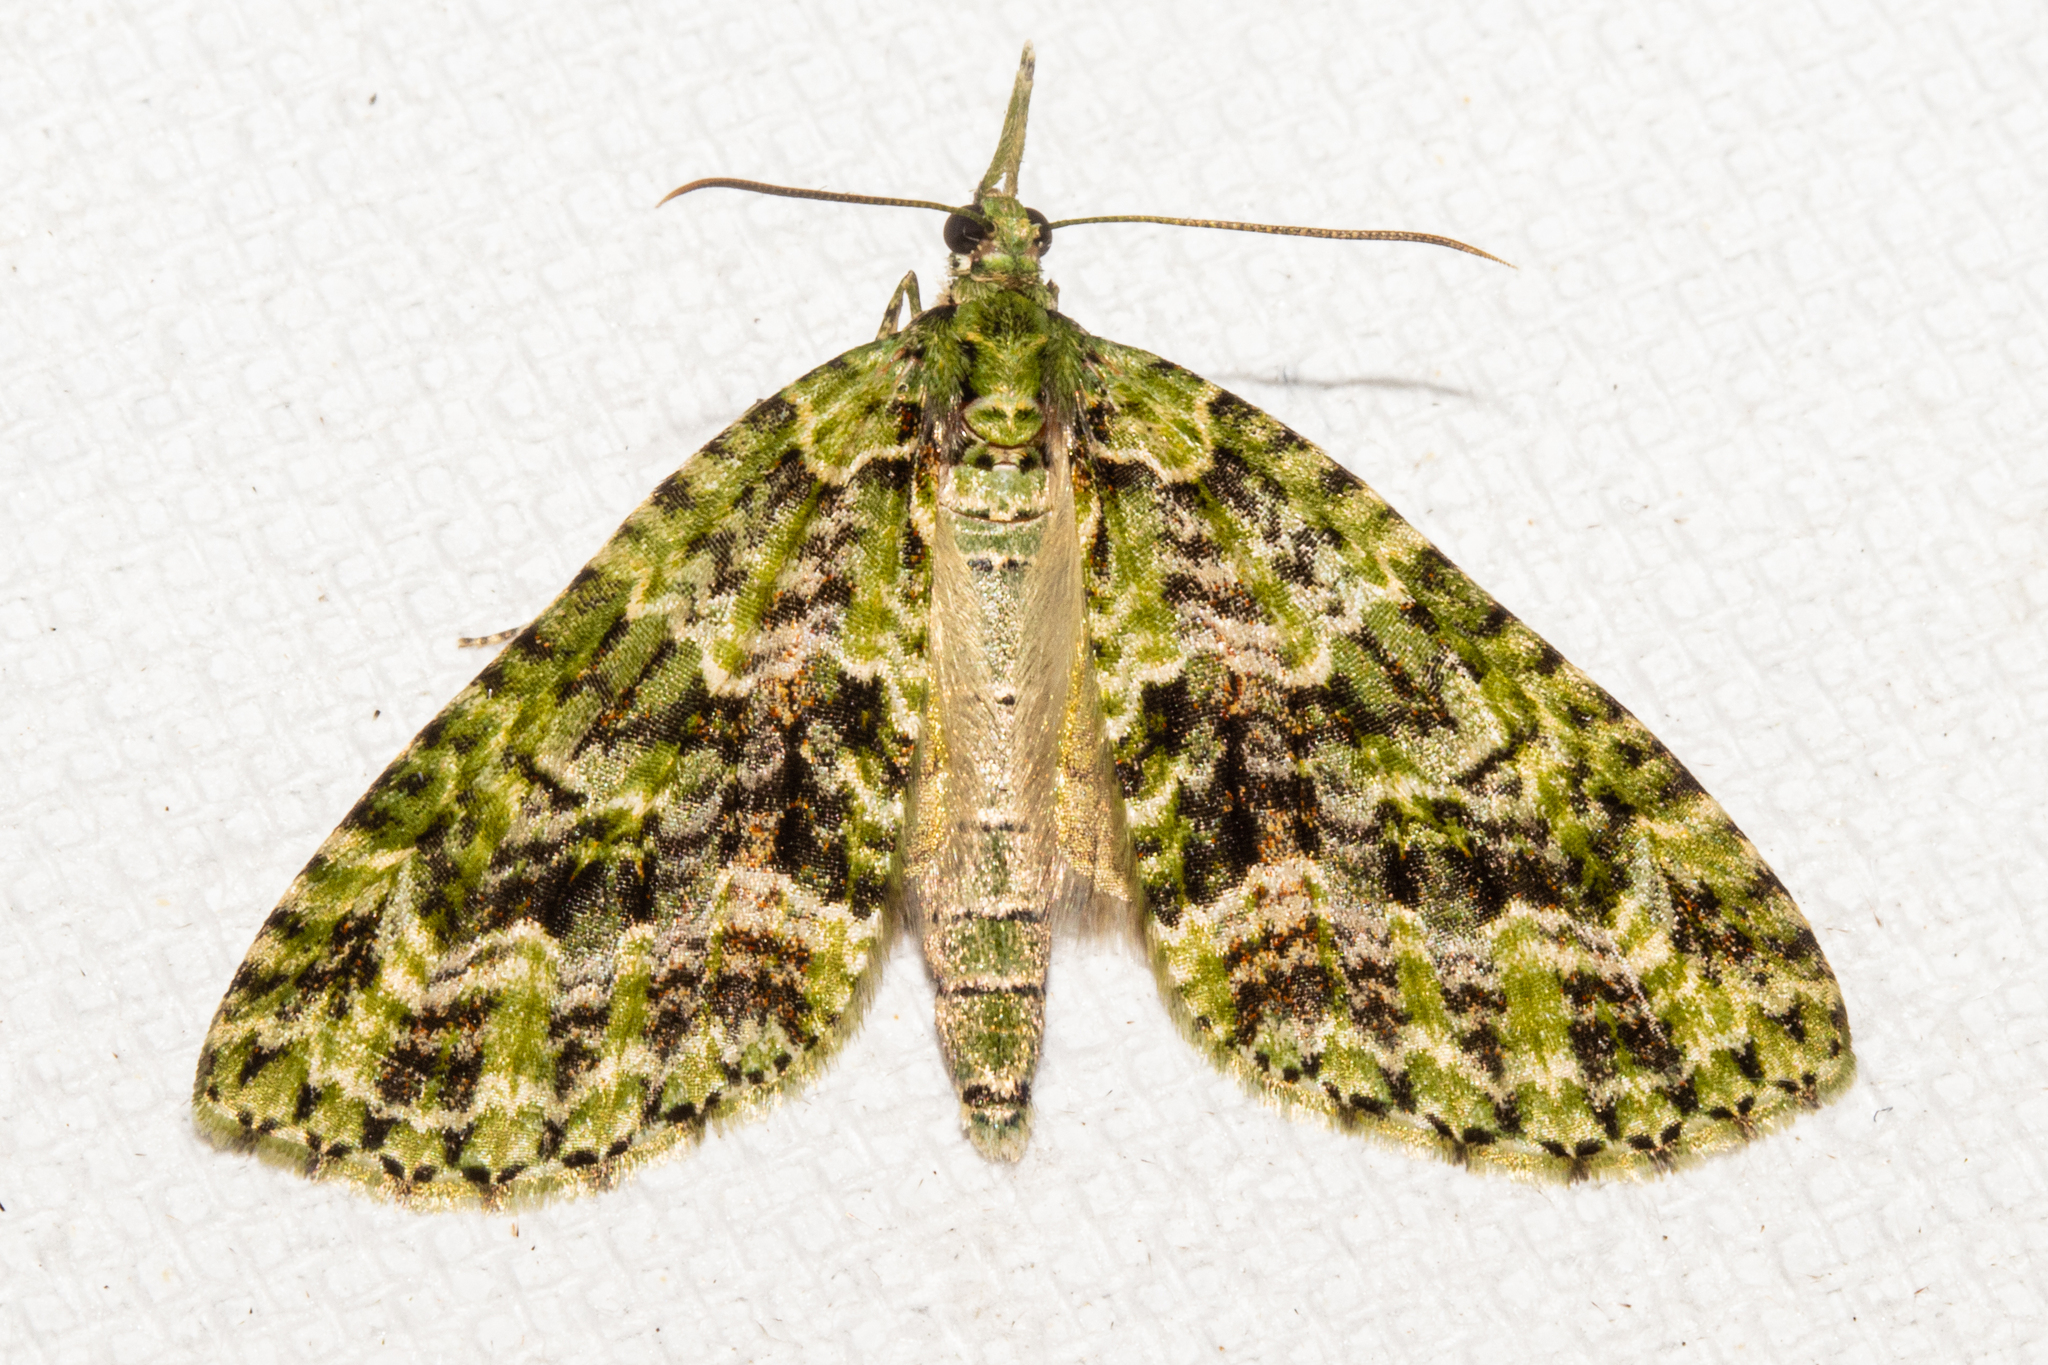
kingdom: Animalia
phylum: Arthropoda
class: Insecta
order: Lepidoptera
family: Geometridae
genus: Tatosoma
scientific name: Tatosoma tipulata
